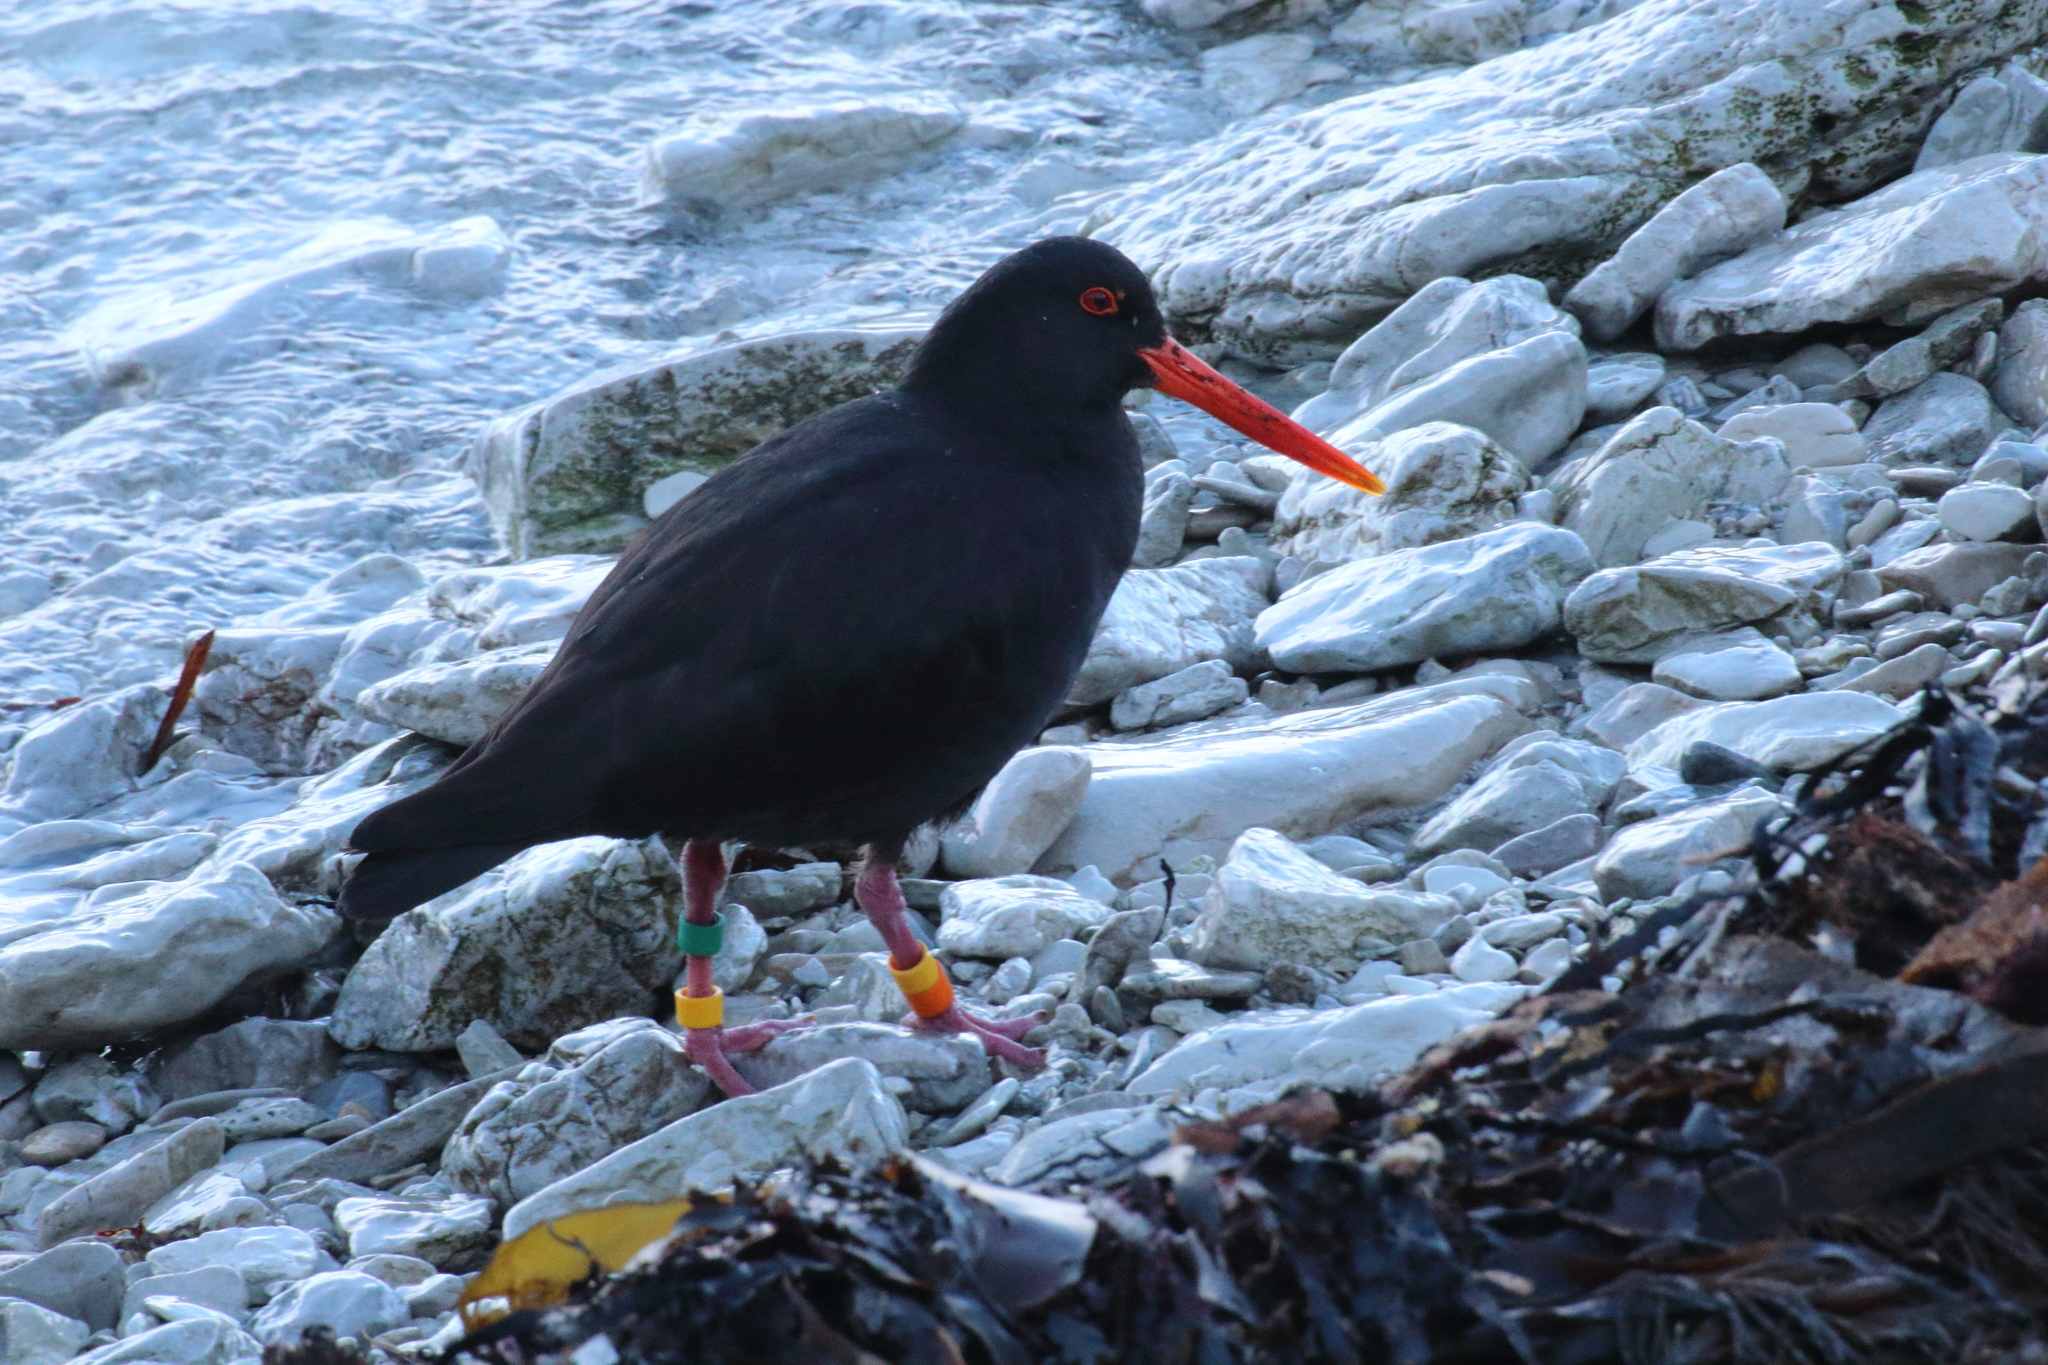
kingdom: Animalia
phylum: Chordata
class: Aves
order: Charadriiformes
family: Haematopodidae
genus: Haematopus
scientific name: Haematopus unicolor
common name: Variable oystercatcher
